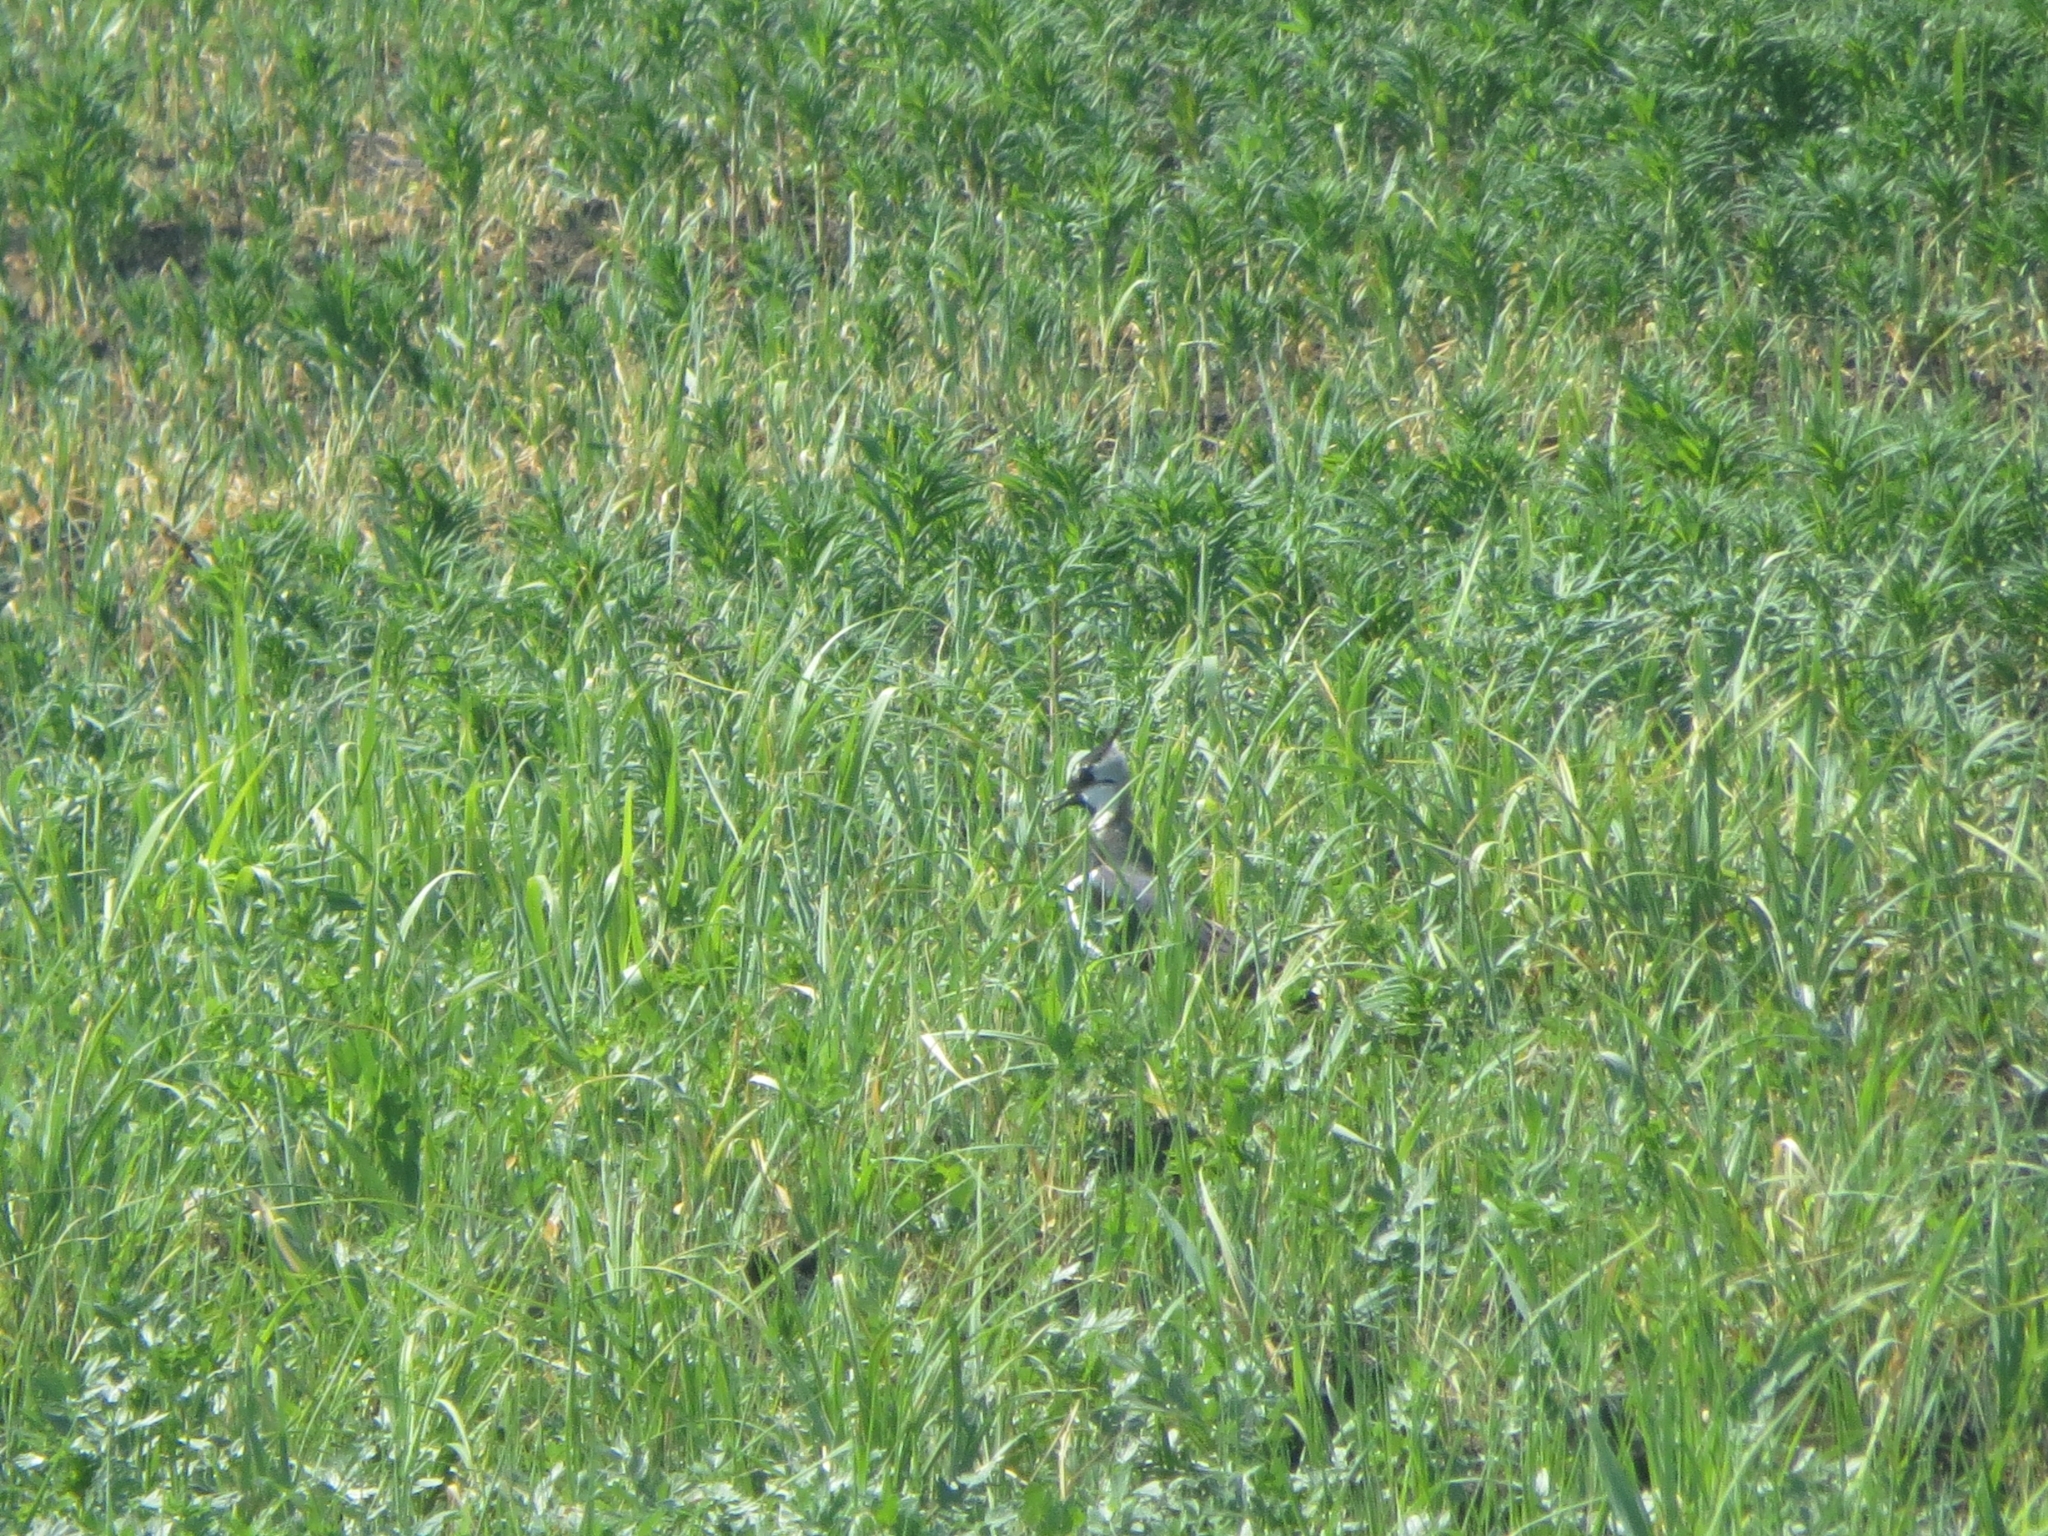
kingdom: Animalia
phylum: Chordata
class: Aves
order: Charadriiformes
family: Charadriidae
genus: Vanellus
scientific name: Vanellus vanellus
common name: Northern lapwing
